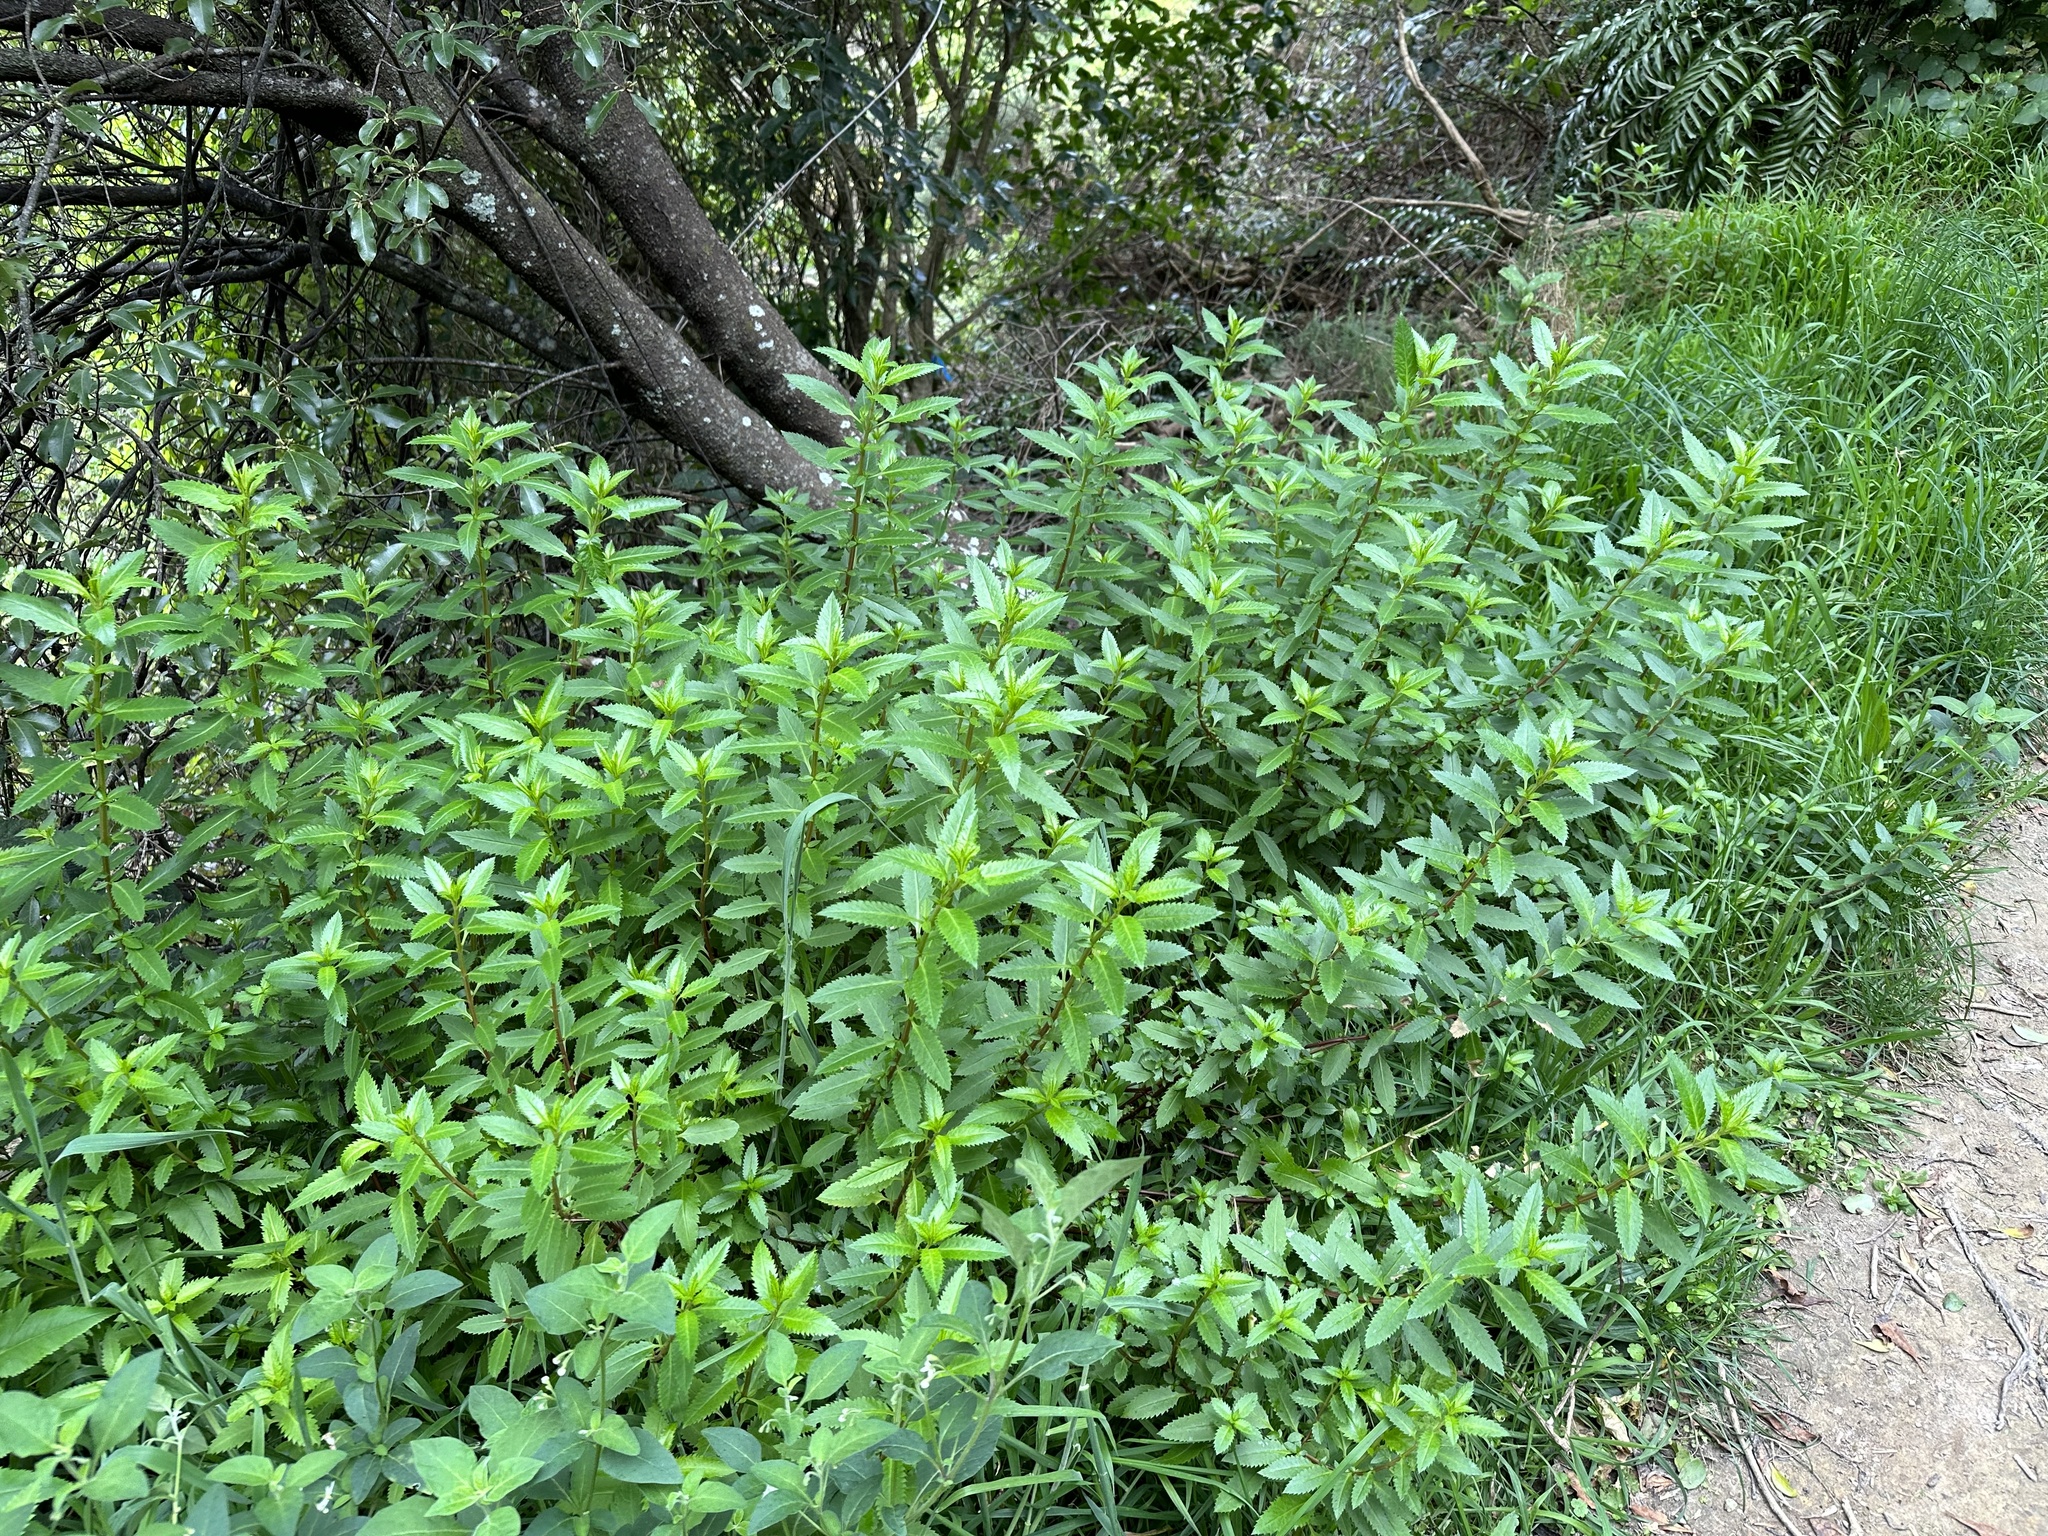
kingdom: Plantae
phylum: Tracheophyta
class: Magnoliopsida
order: Saxifragales
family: Haloragaceae
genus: Haloragis
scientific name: Haloragis erecta
